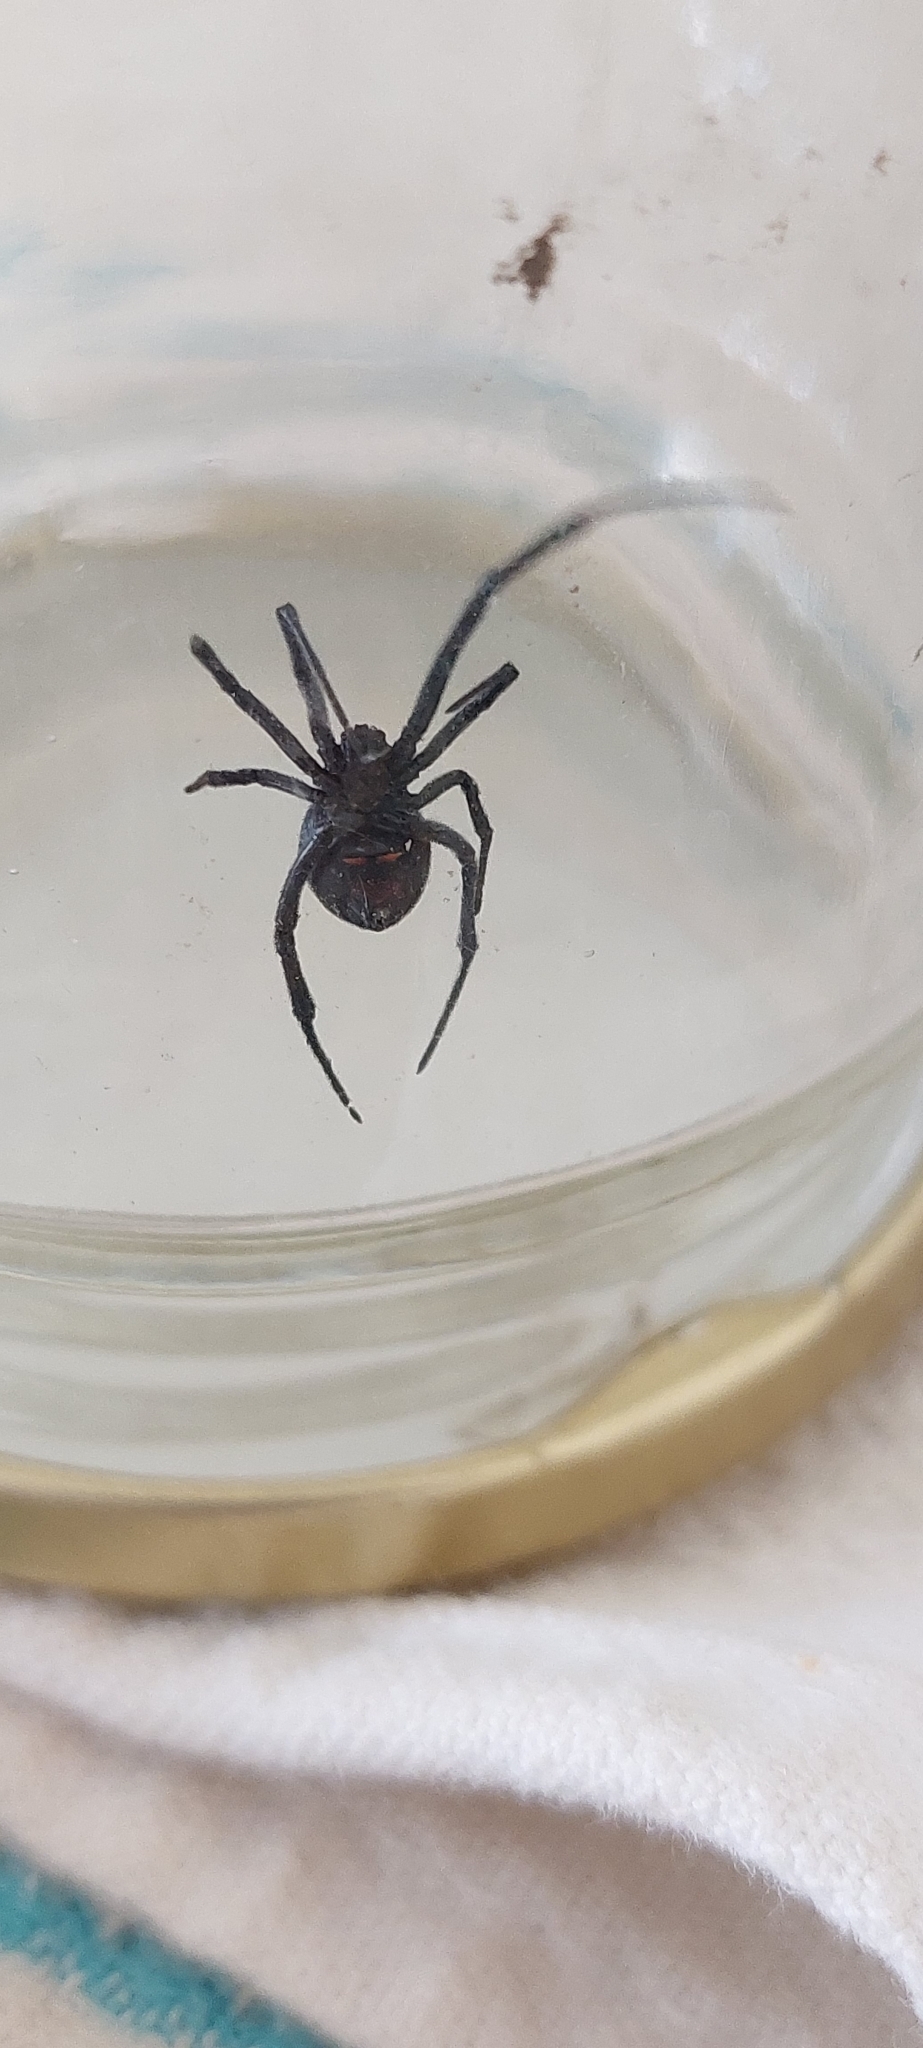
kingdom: Animalia
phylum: Arthropoda
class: Arachnida
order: Araneae
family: Theridiidae
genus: Latrodectus
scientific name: Latrodectus mirabilis
